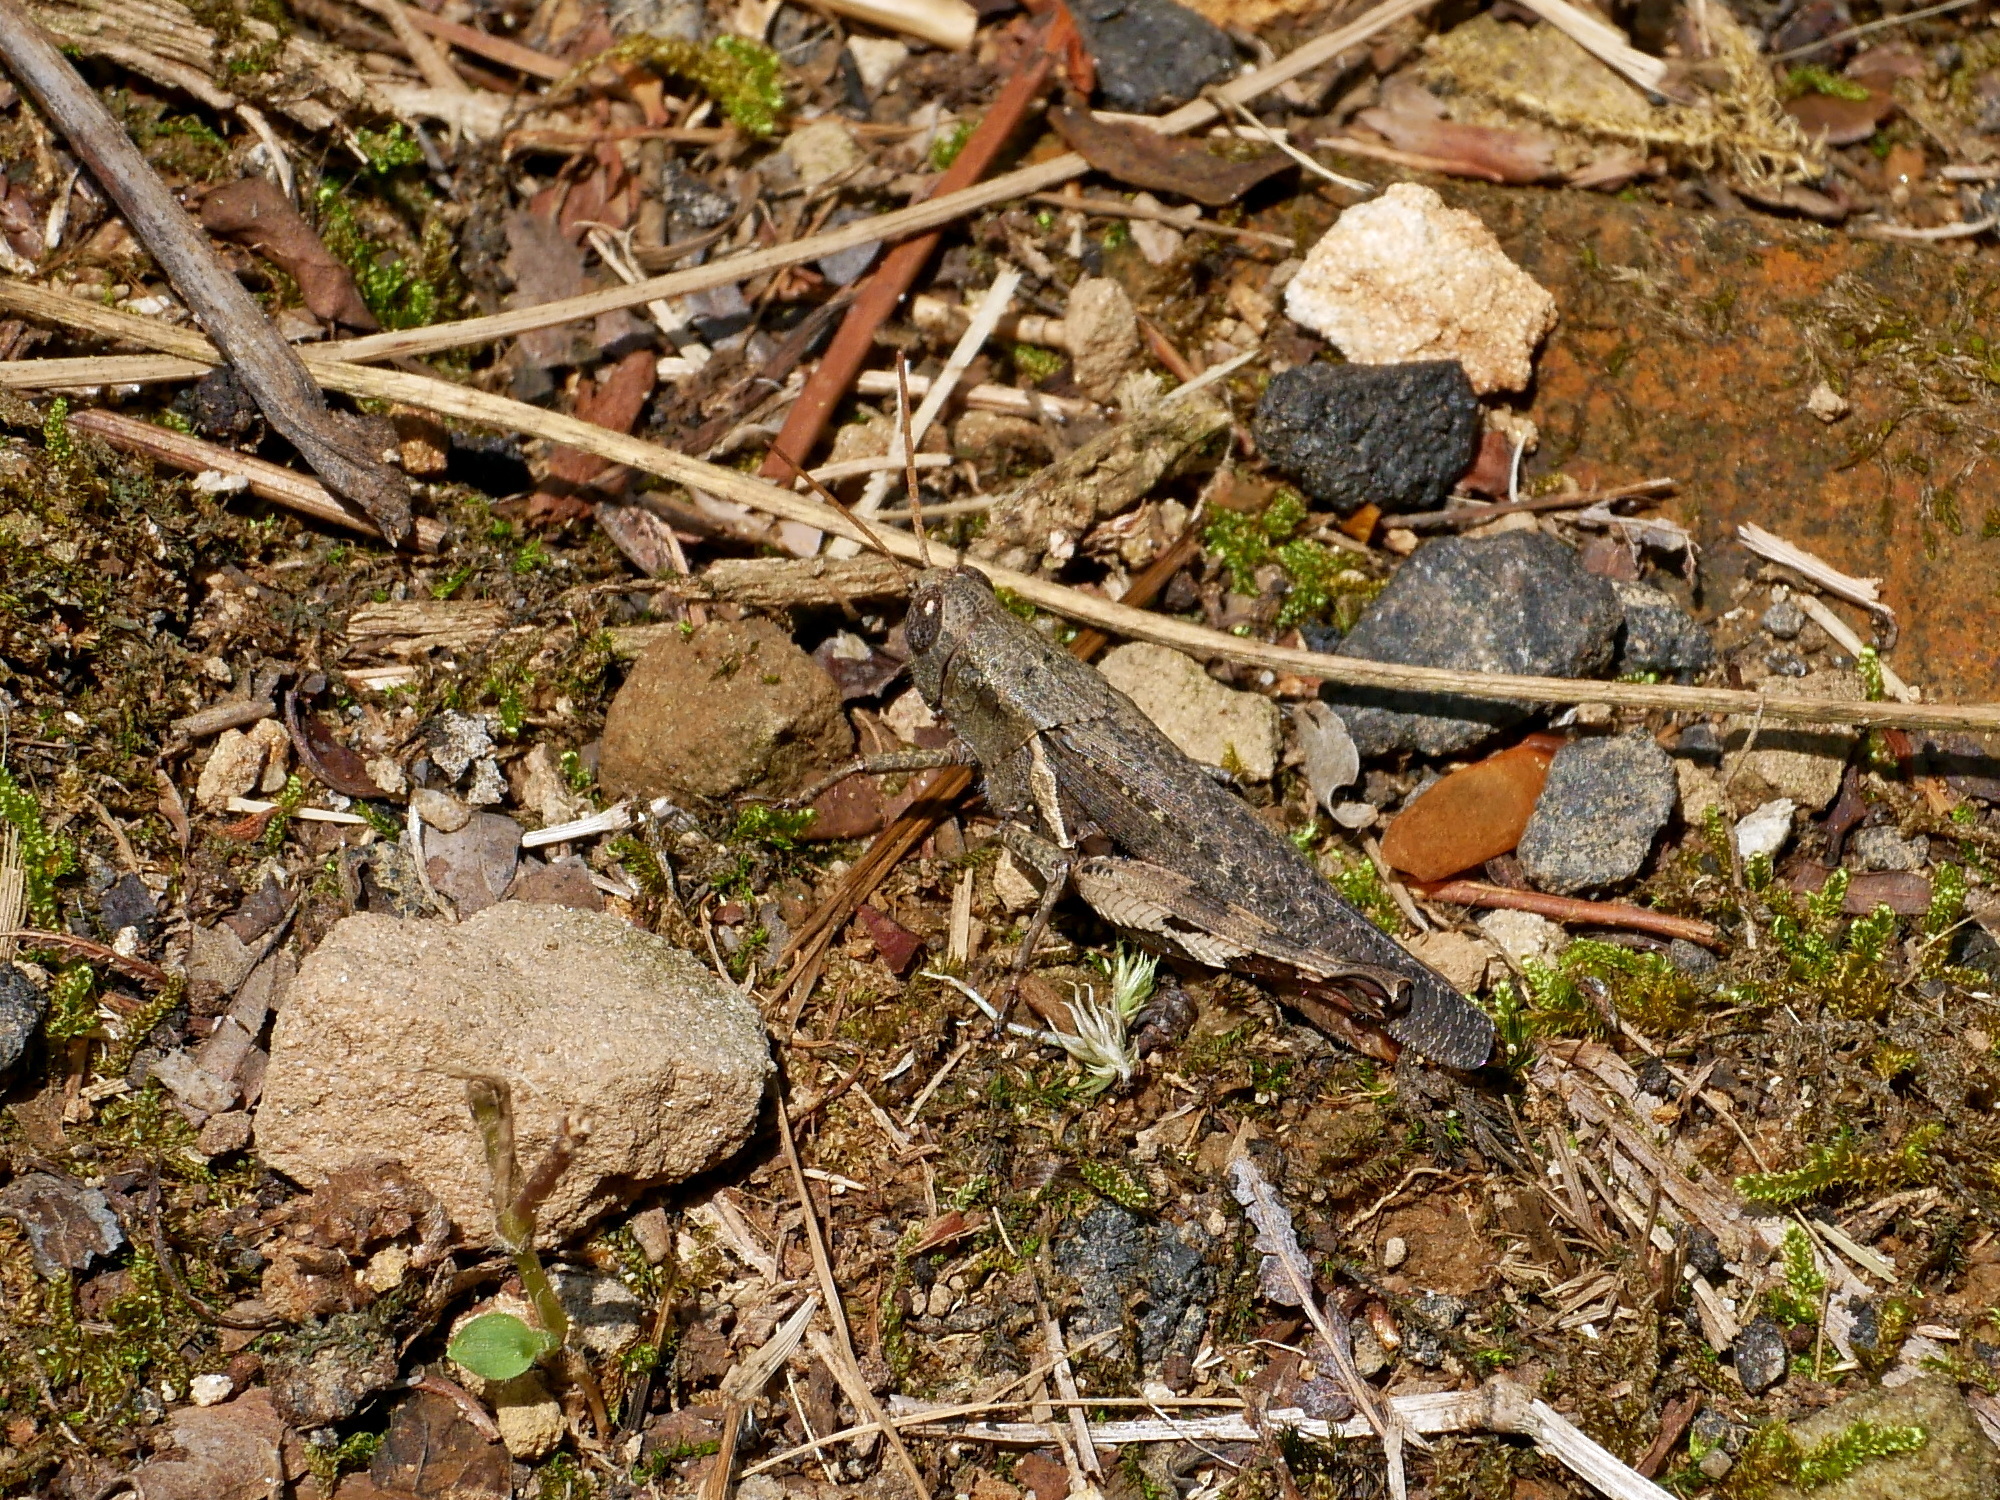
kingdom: Animalia
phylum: Arthropoda
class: Insecta
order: Orthoptera
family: Acrididae
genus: Xenocatantops
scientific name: Xenocatantops humile
